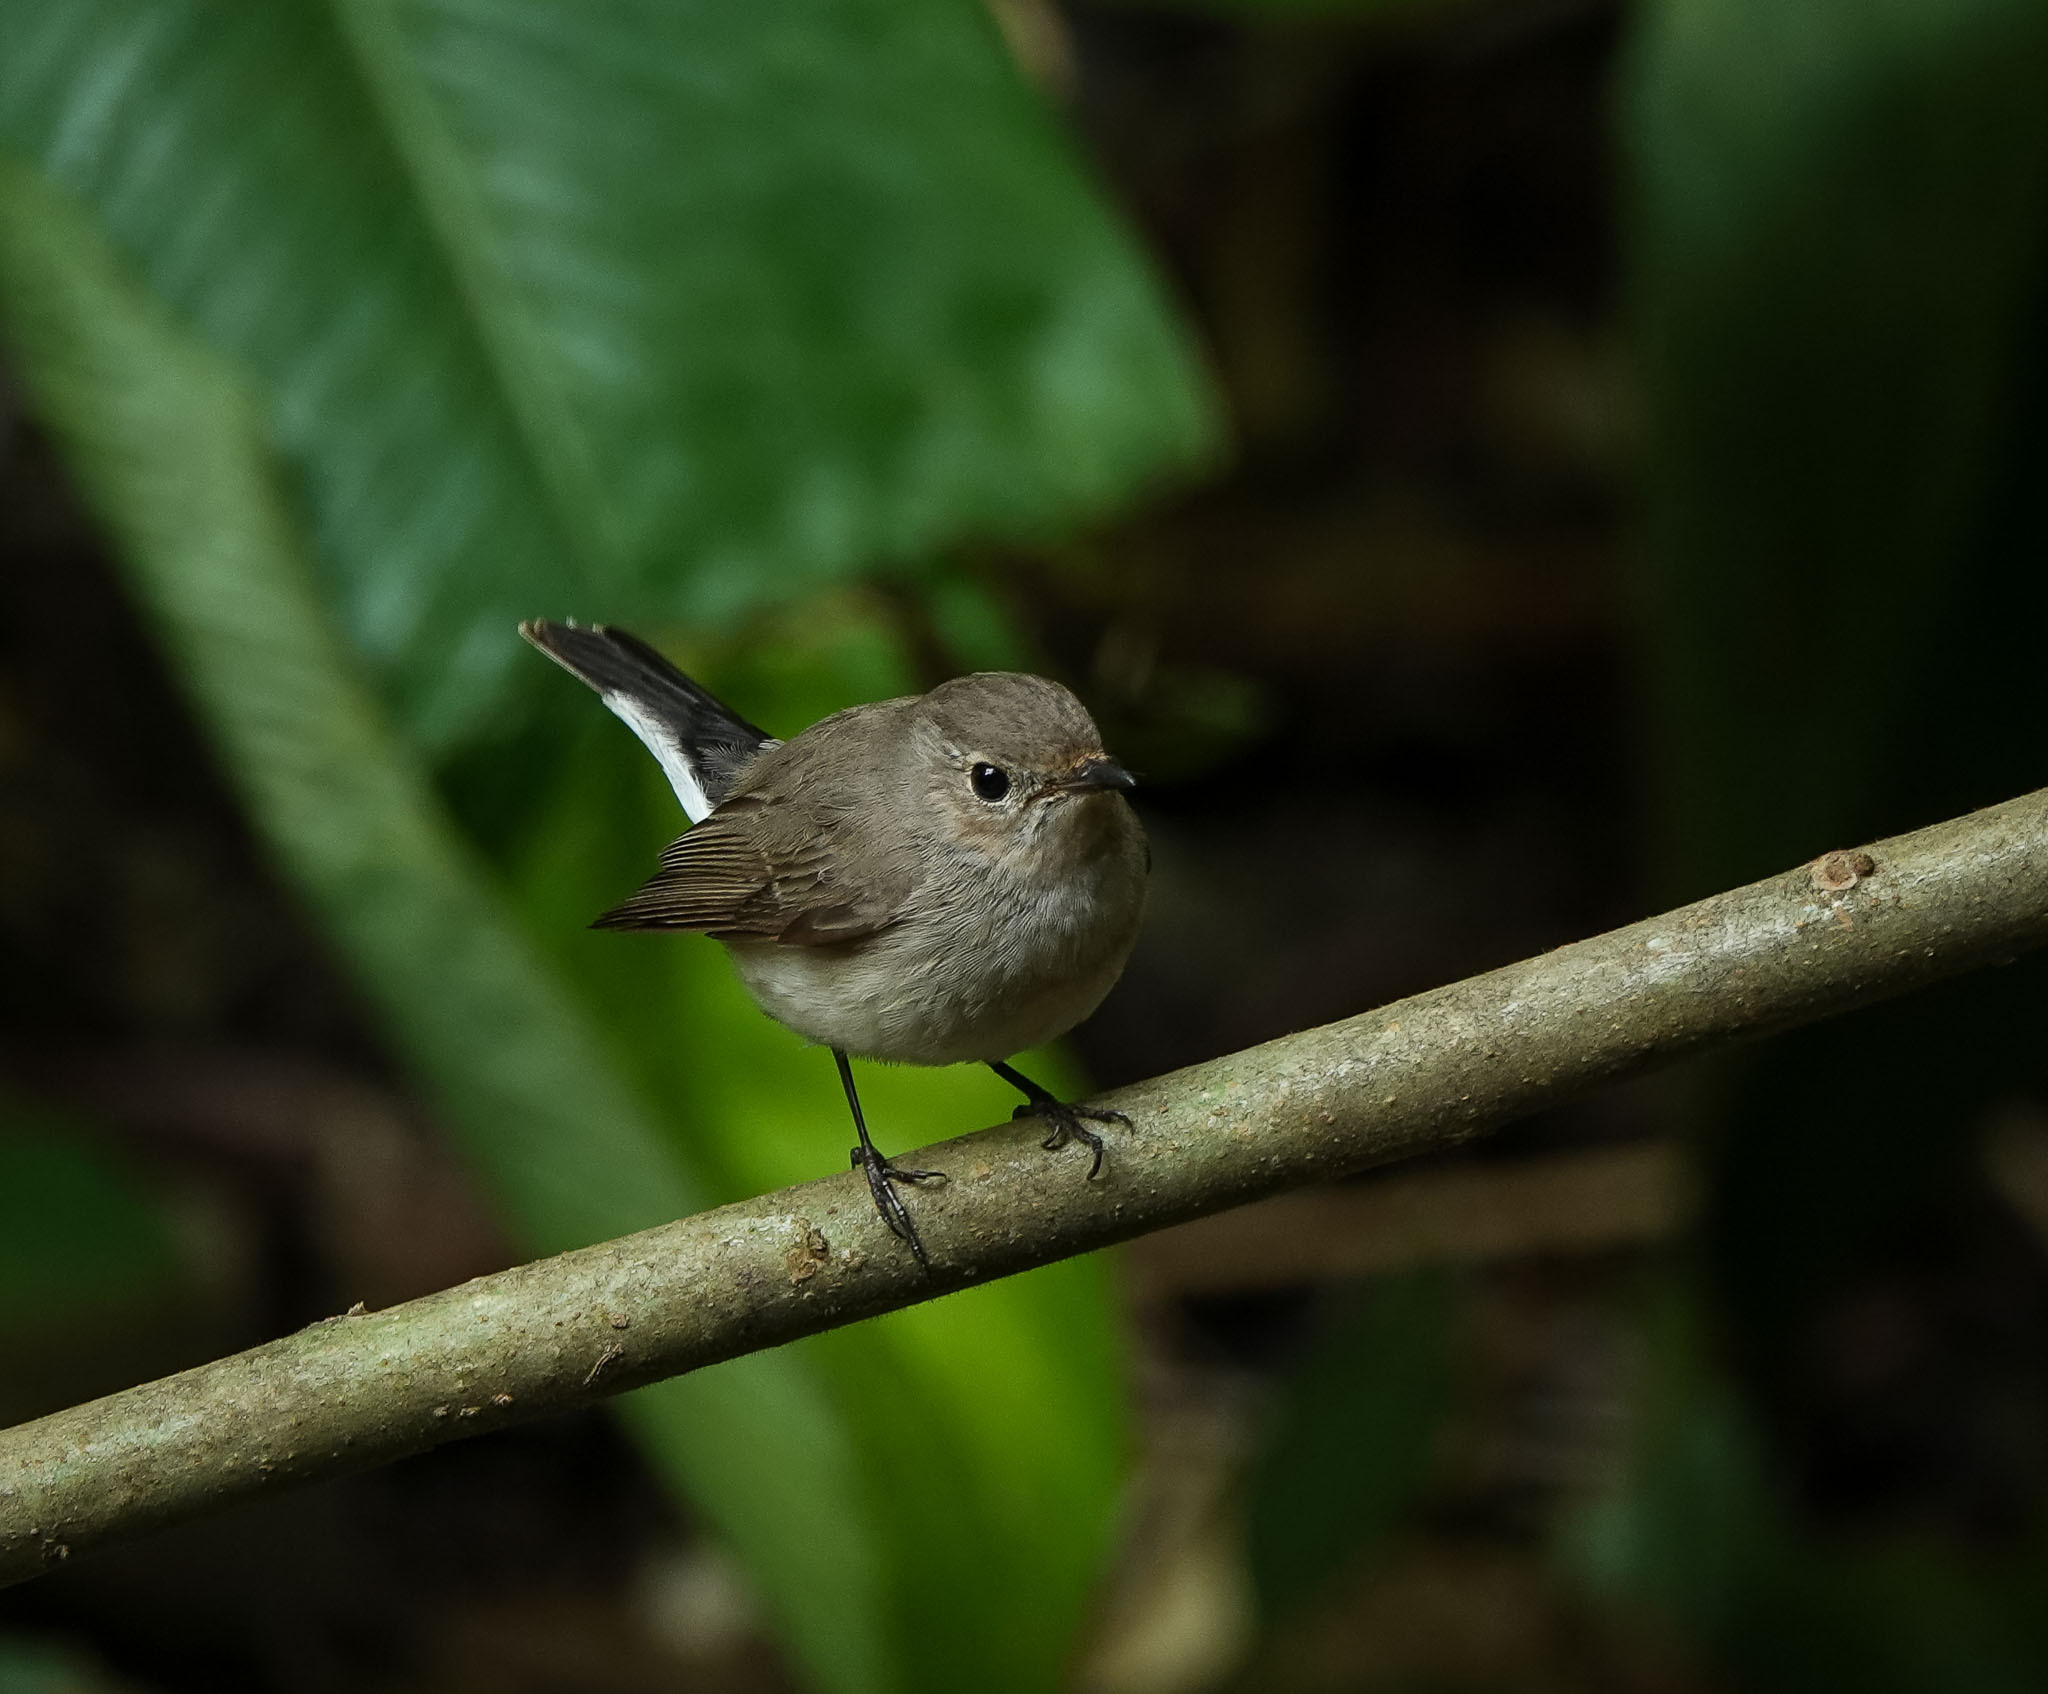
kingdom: Animalia
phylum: Chordata
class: Aves
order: Passeriformes
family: Muscicapidae
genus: Ficedula
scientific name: Ficedula albicilla
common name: Taiga flycatcher
